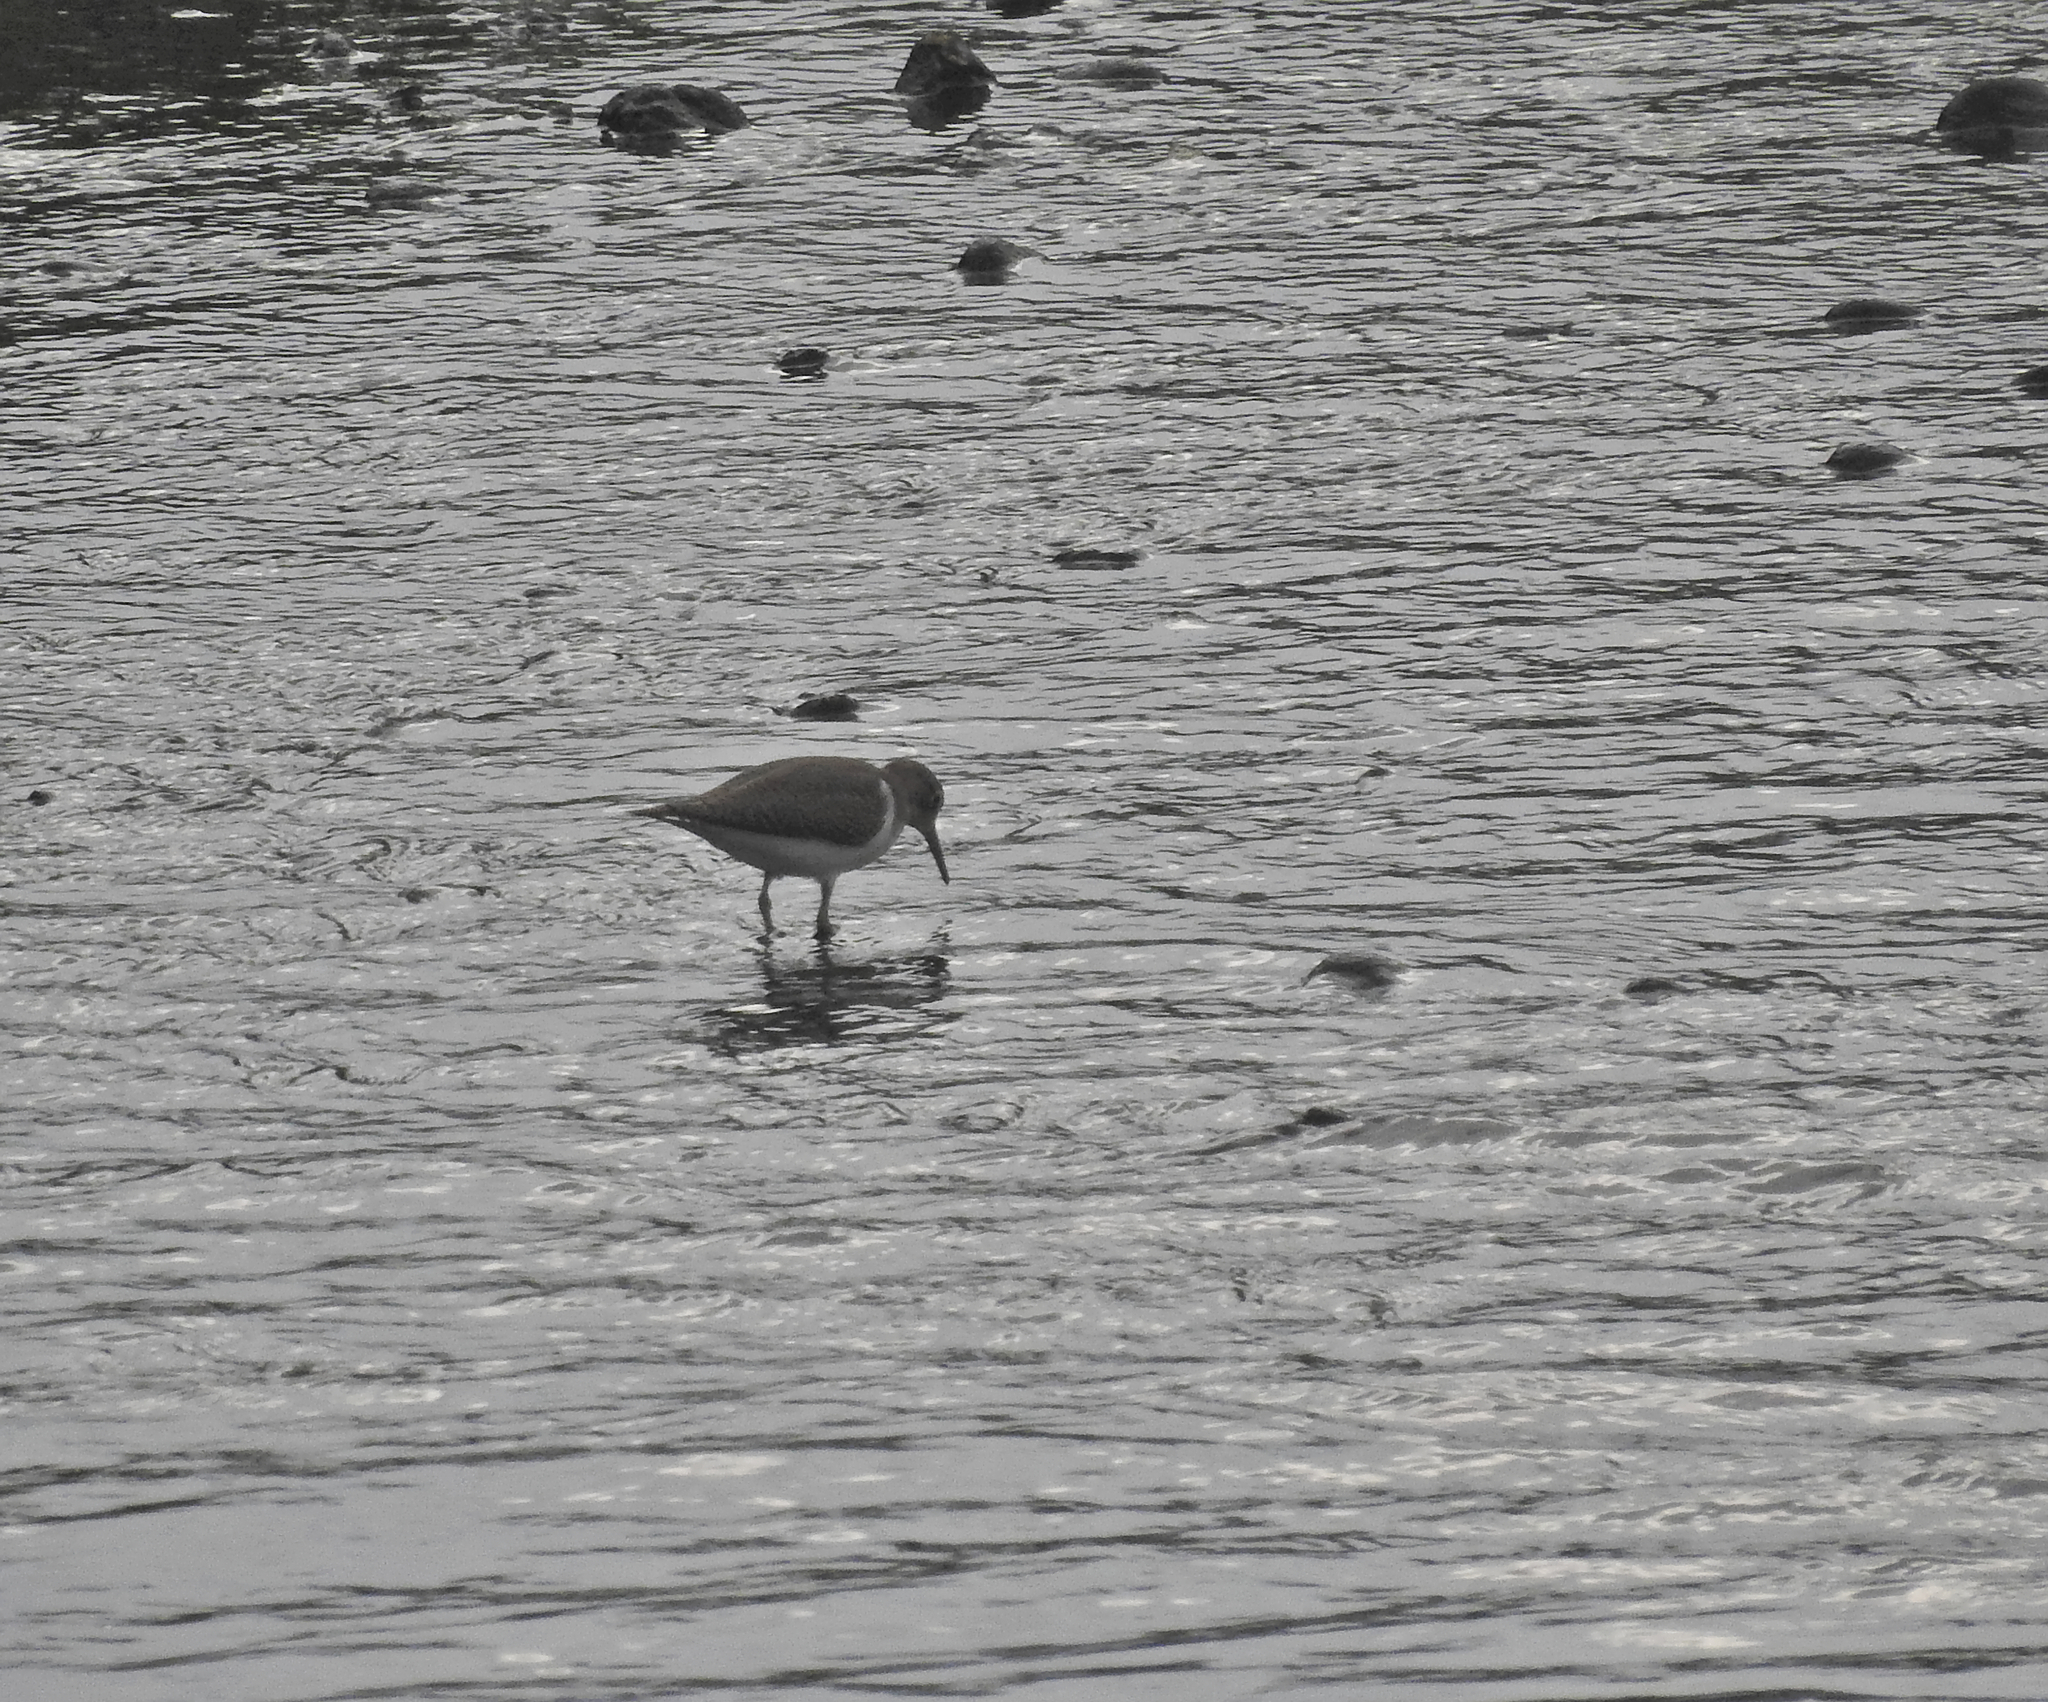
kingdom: Animalia
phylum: Chordata
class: Aves
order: Charadriiformes
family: Scolopacidae
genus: Actitis
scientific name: Actitis hypoleucos
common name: Common sandpiper
